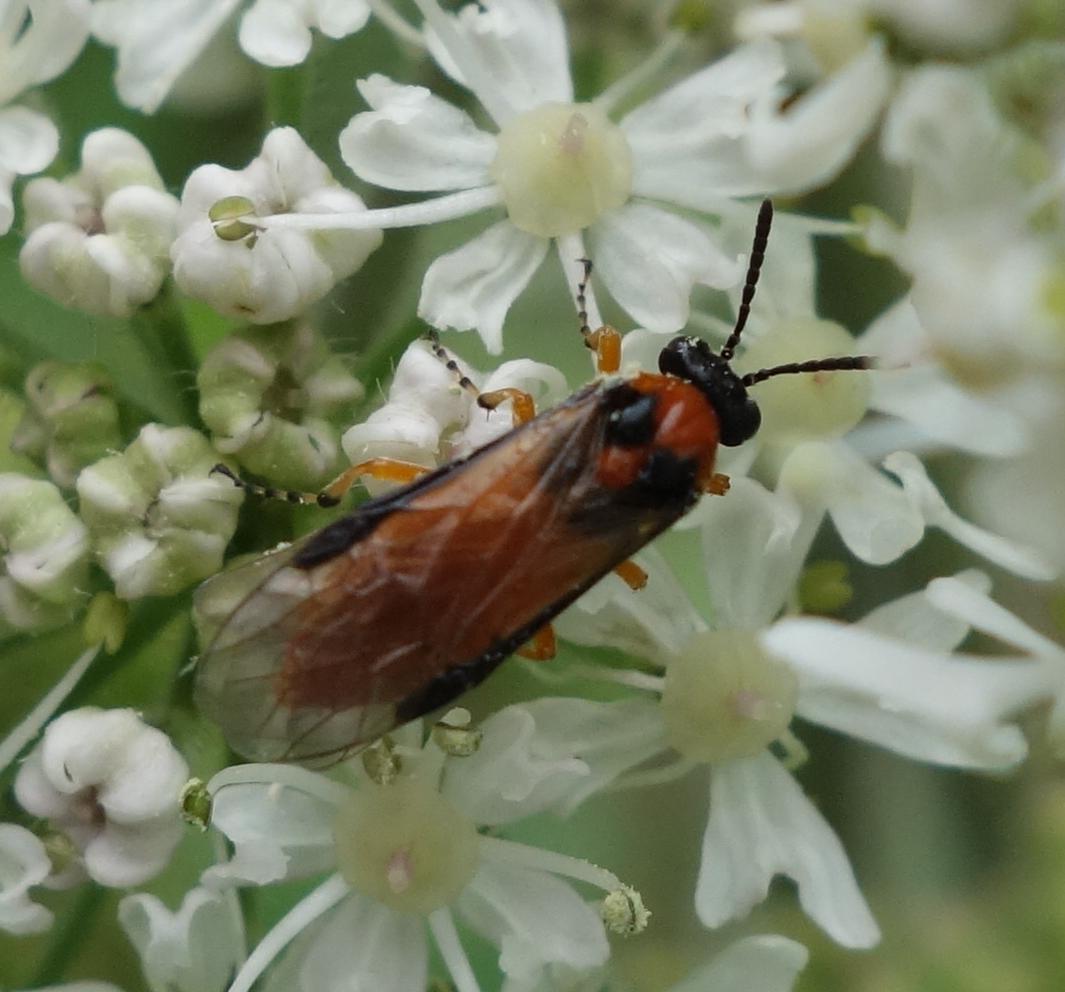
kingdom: Animalia
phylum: Arthropoda
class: Insecta
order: Hymenoptera
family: Tenthredinidae
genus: Athalia
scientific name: Athalia rosae
